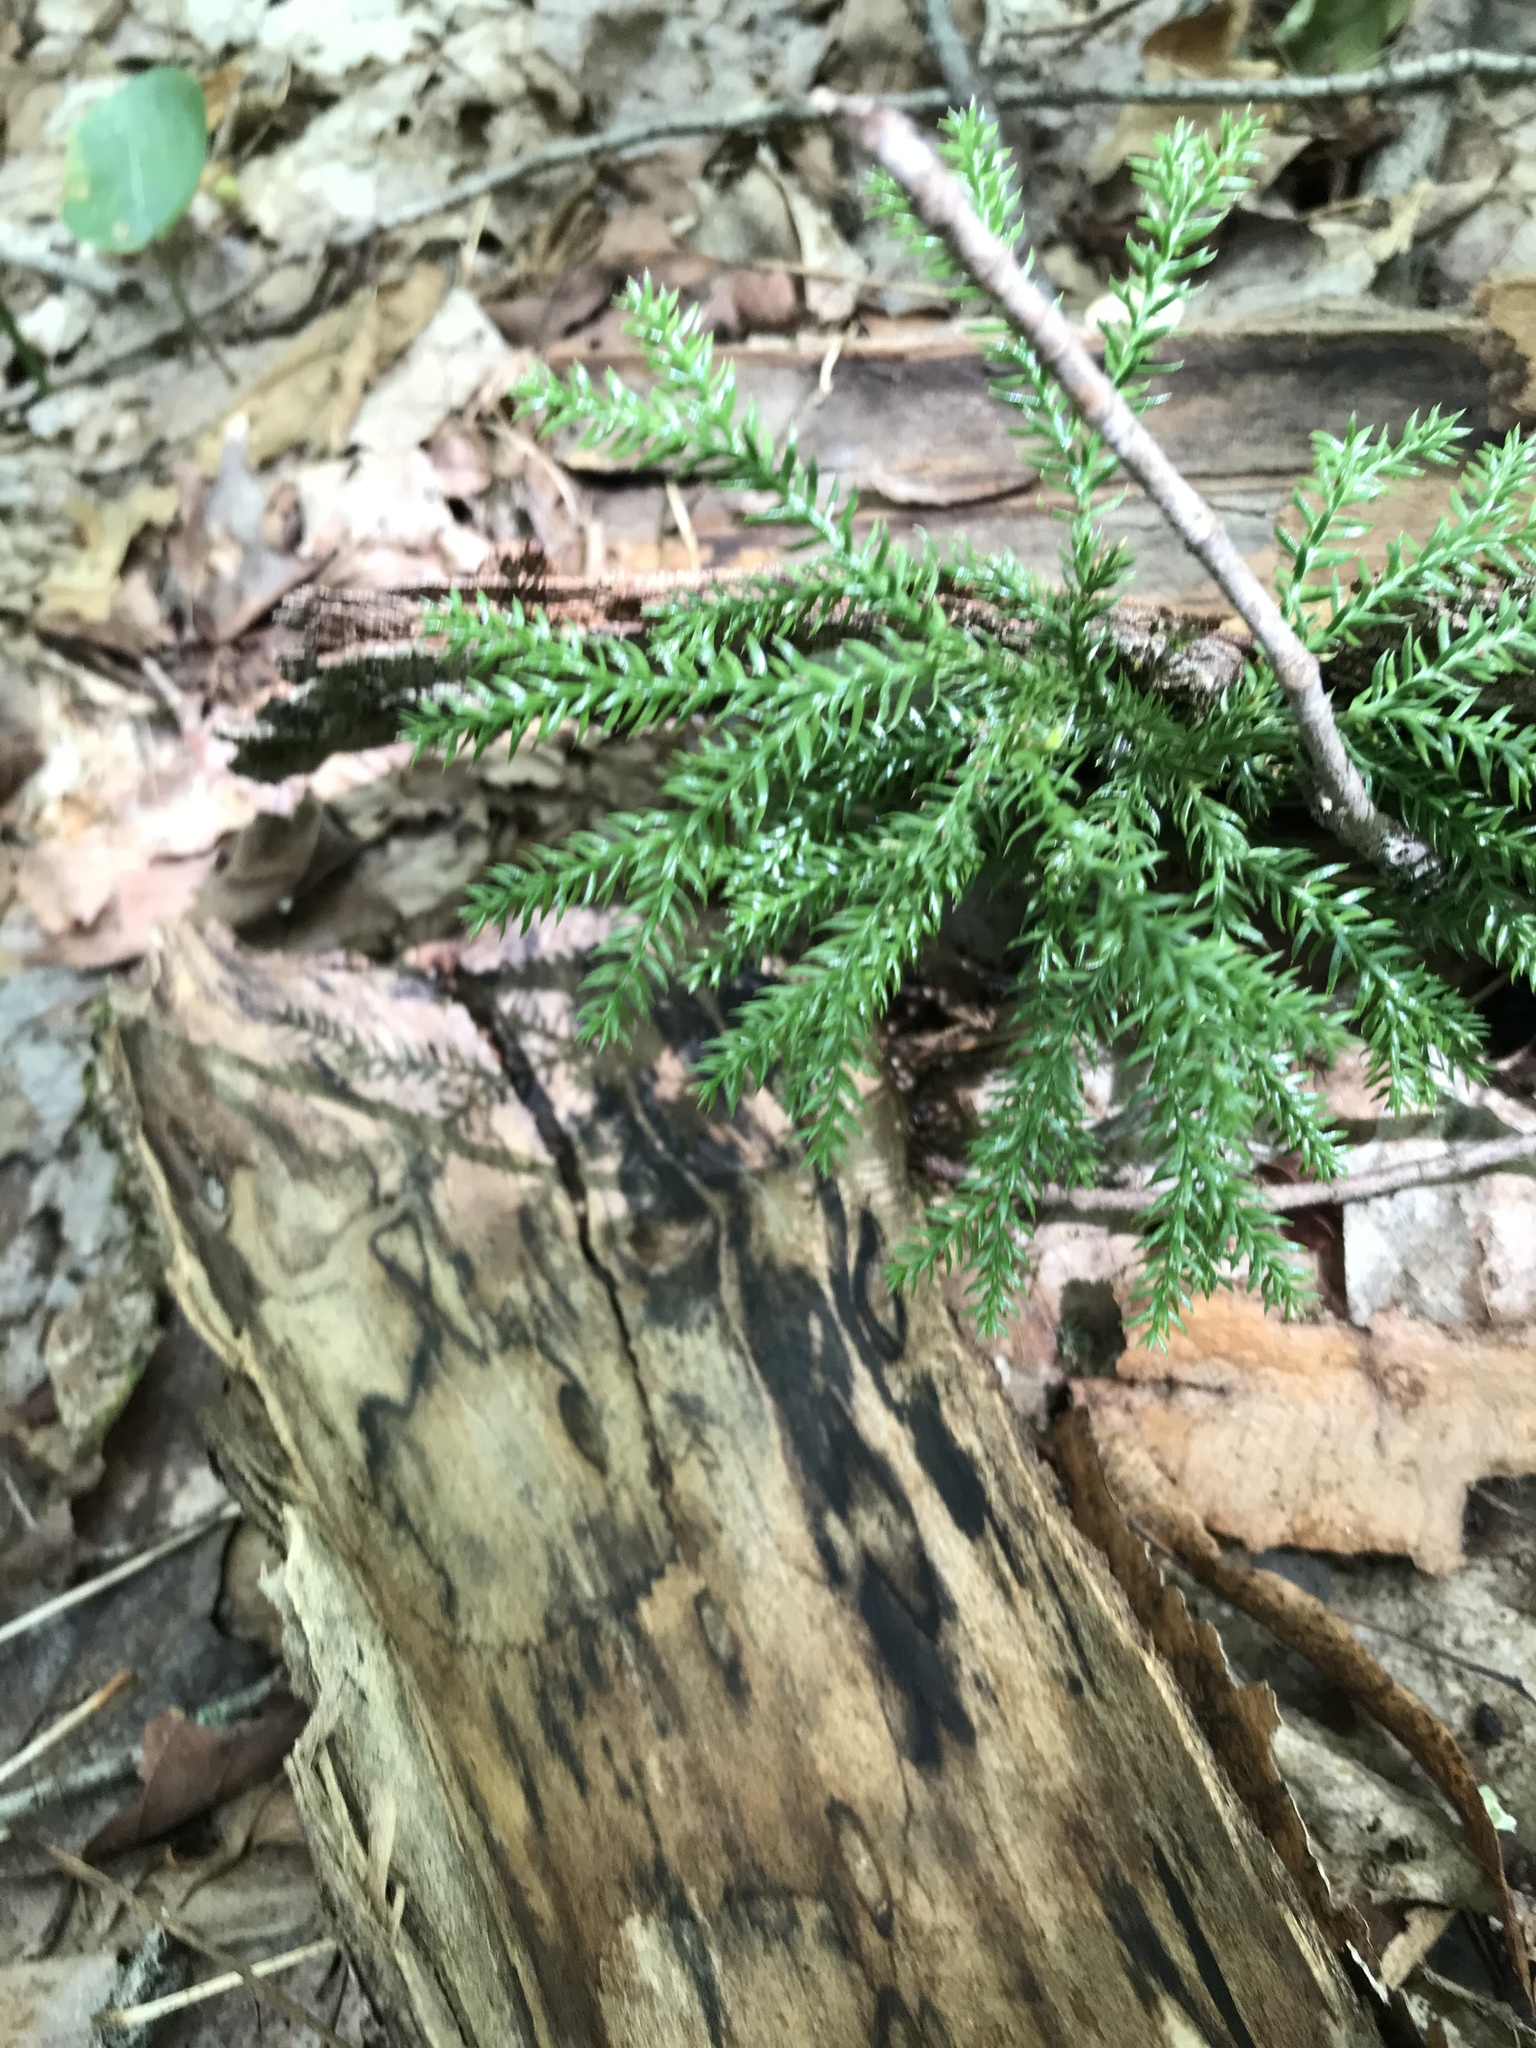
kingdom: Plantae
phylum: Tracheophyta
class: Lycopodiopsida
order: Lycopodiales
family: Lycopodiaceae
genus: Dendrolycopodium
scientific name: Dendrolycopodium dendroideum
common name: Northern tree-clubmoss
